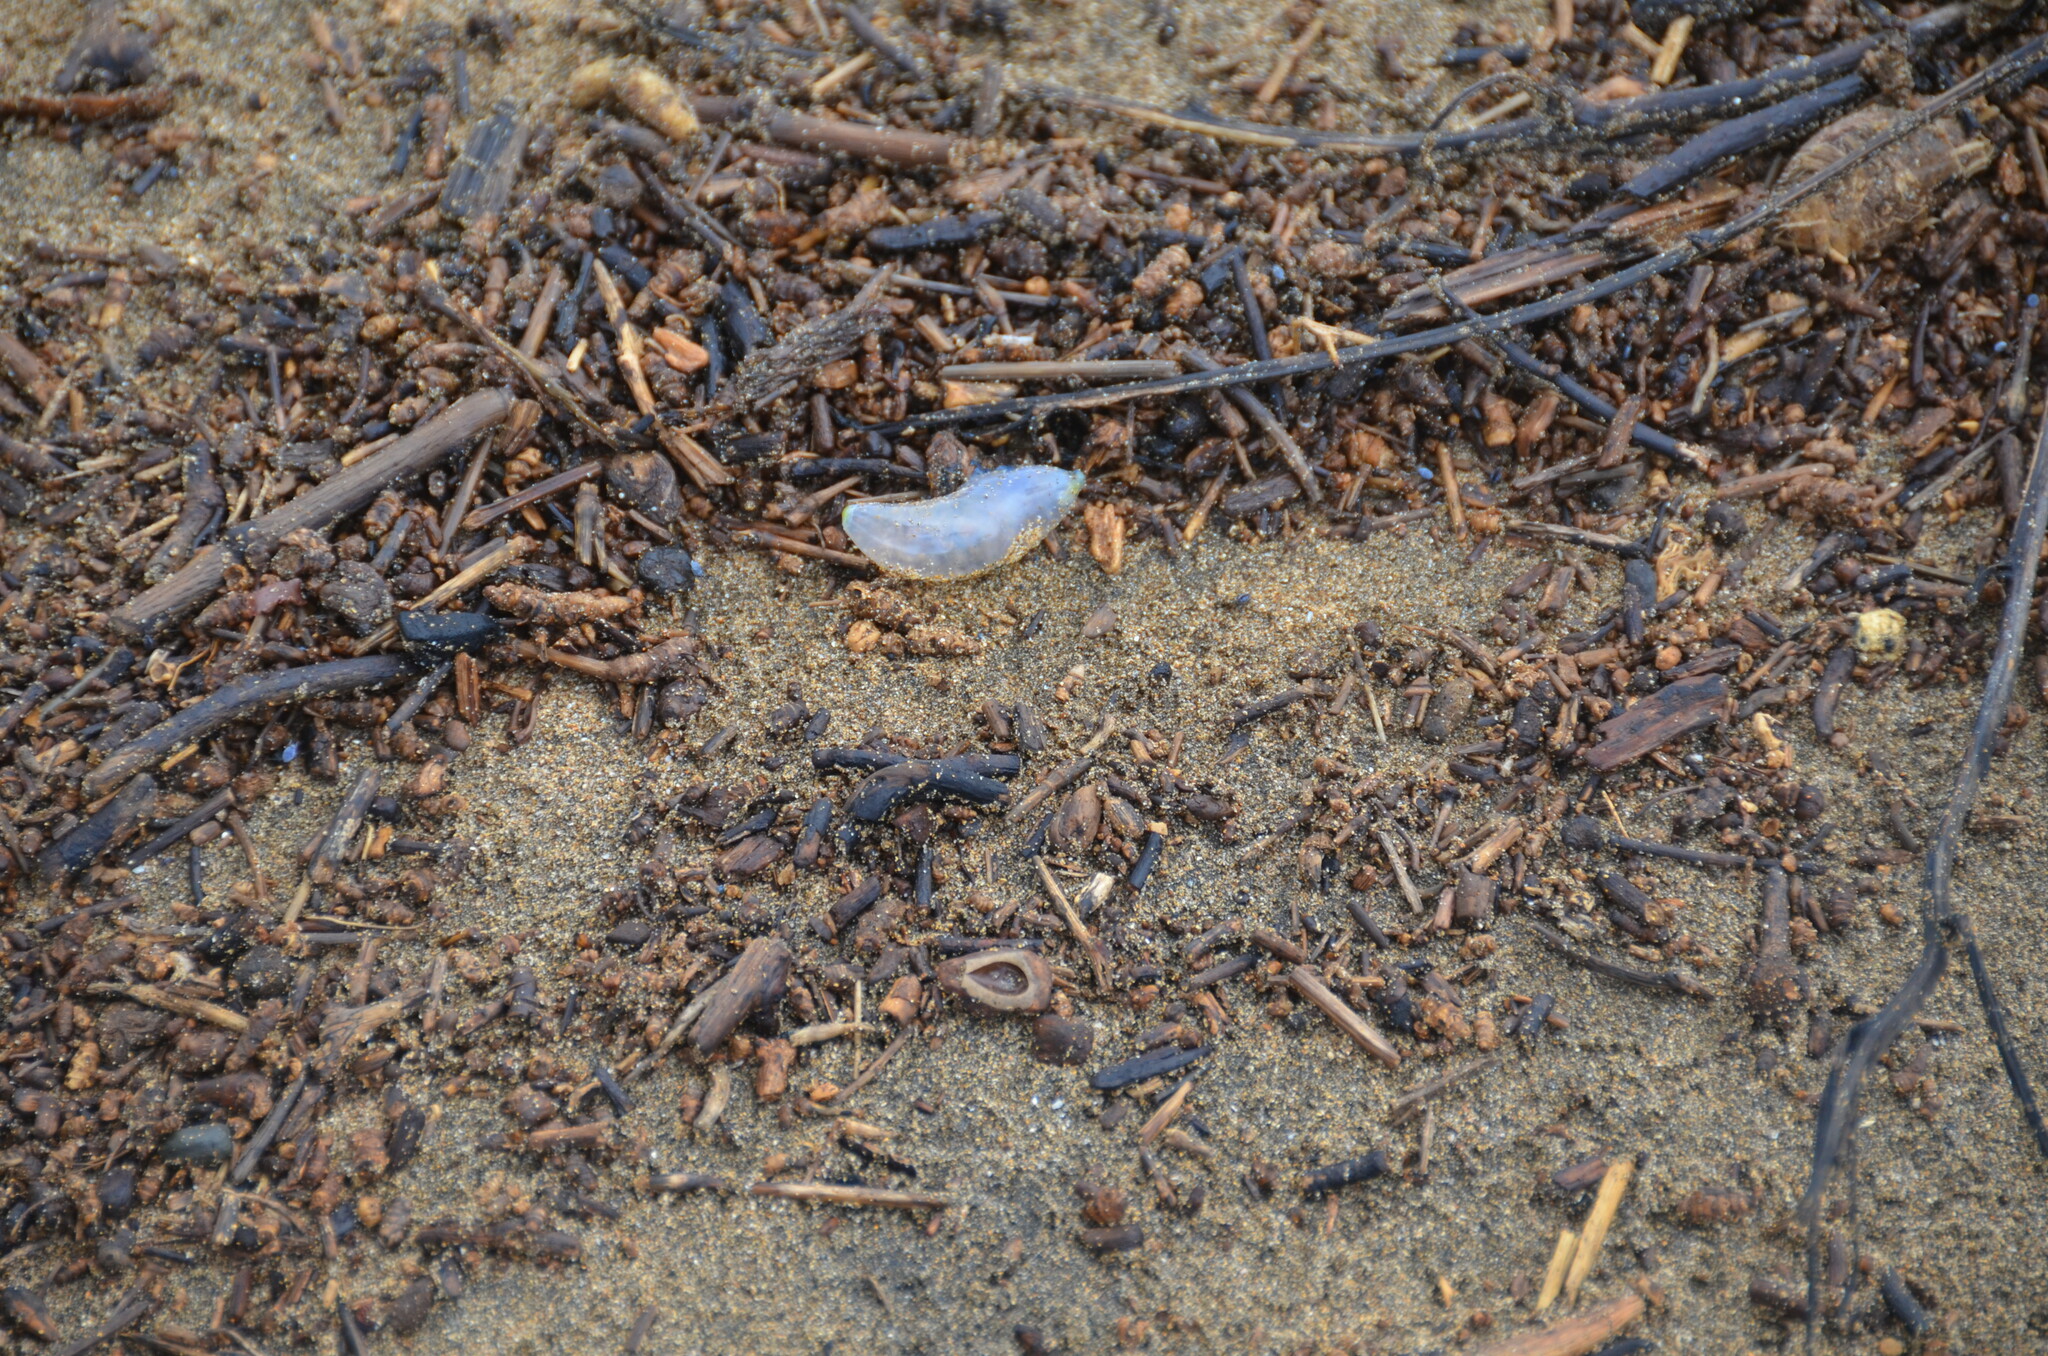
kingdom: Animalia
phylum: Cnidaria
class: Hydrozoa
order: Siphonophorae
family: Physaliidae
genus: Physalia
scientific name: Physalia physalis
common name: Portuguese man-of-war
